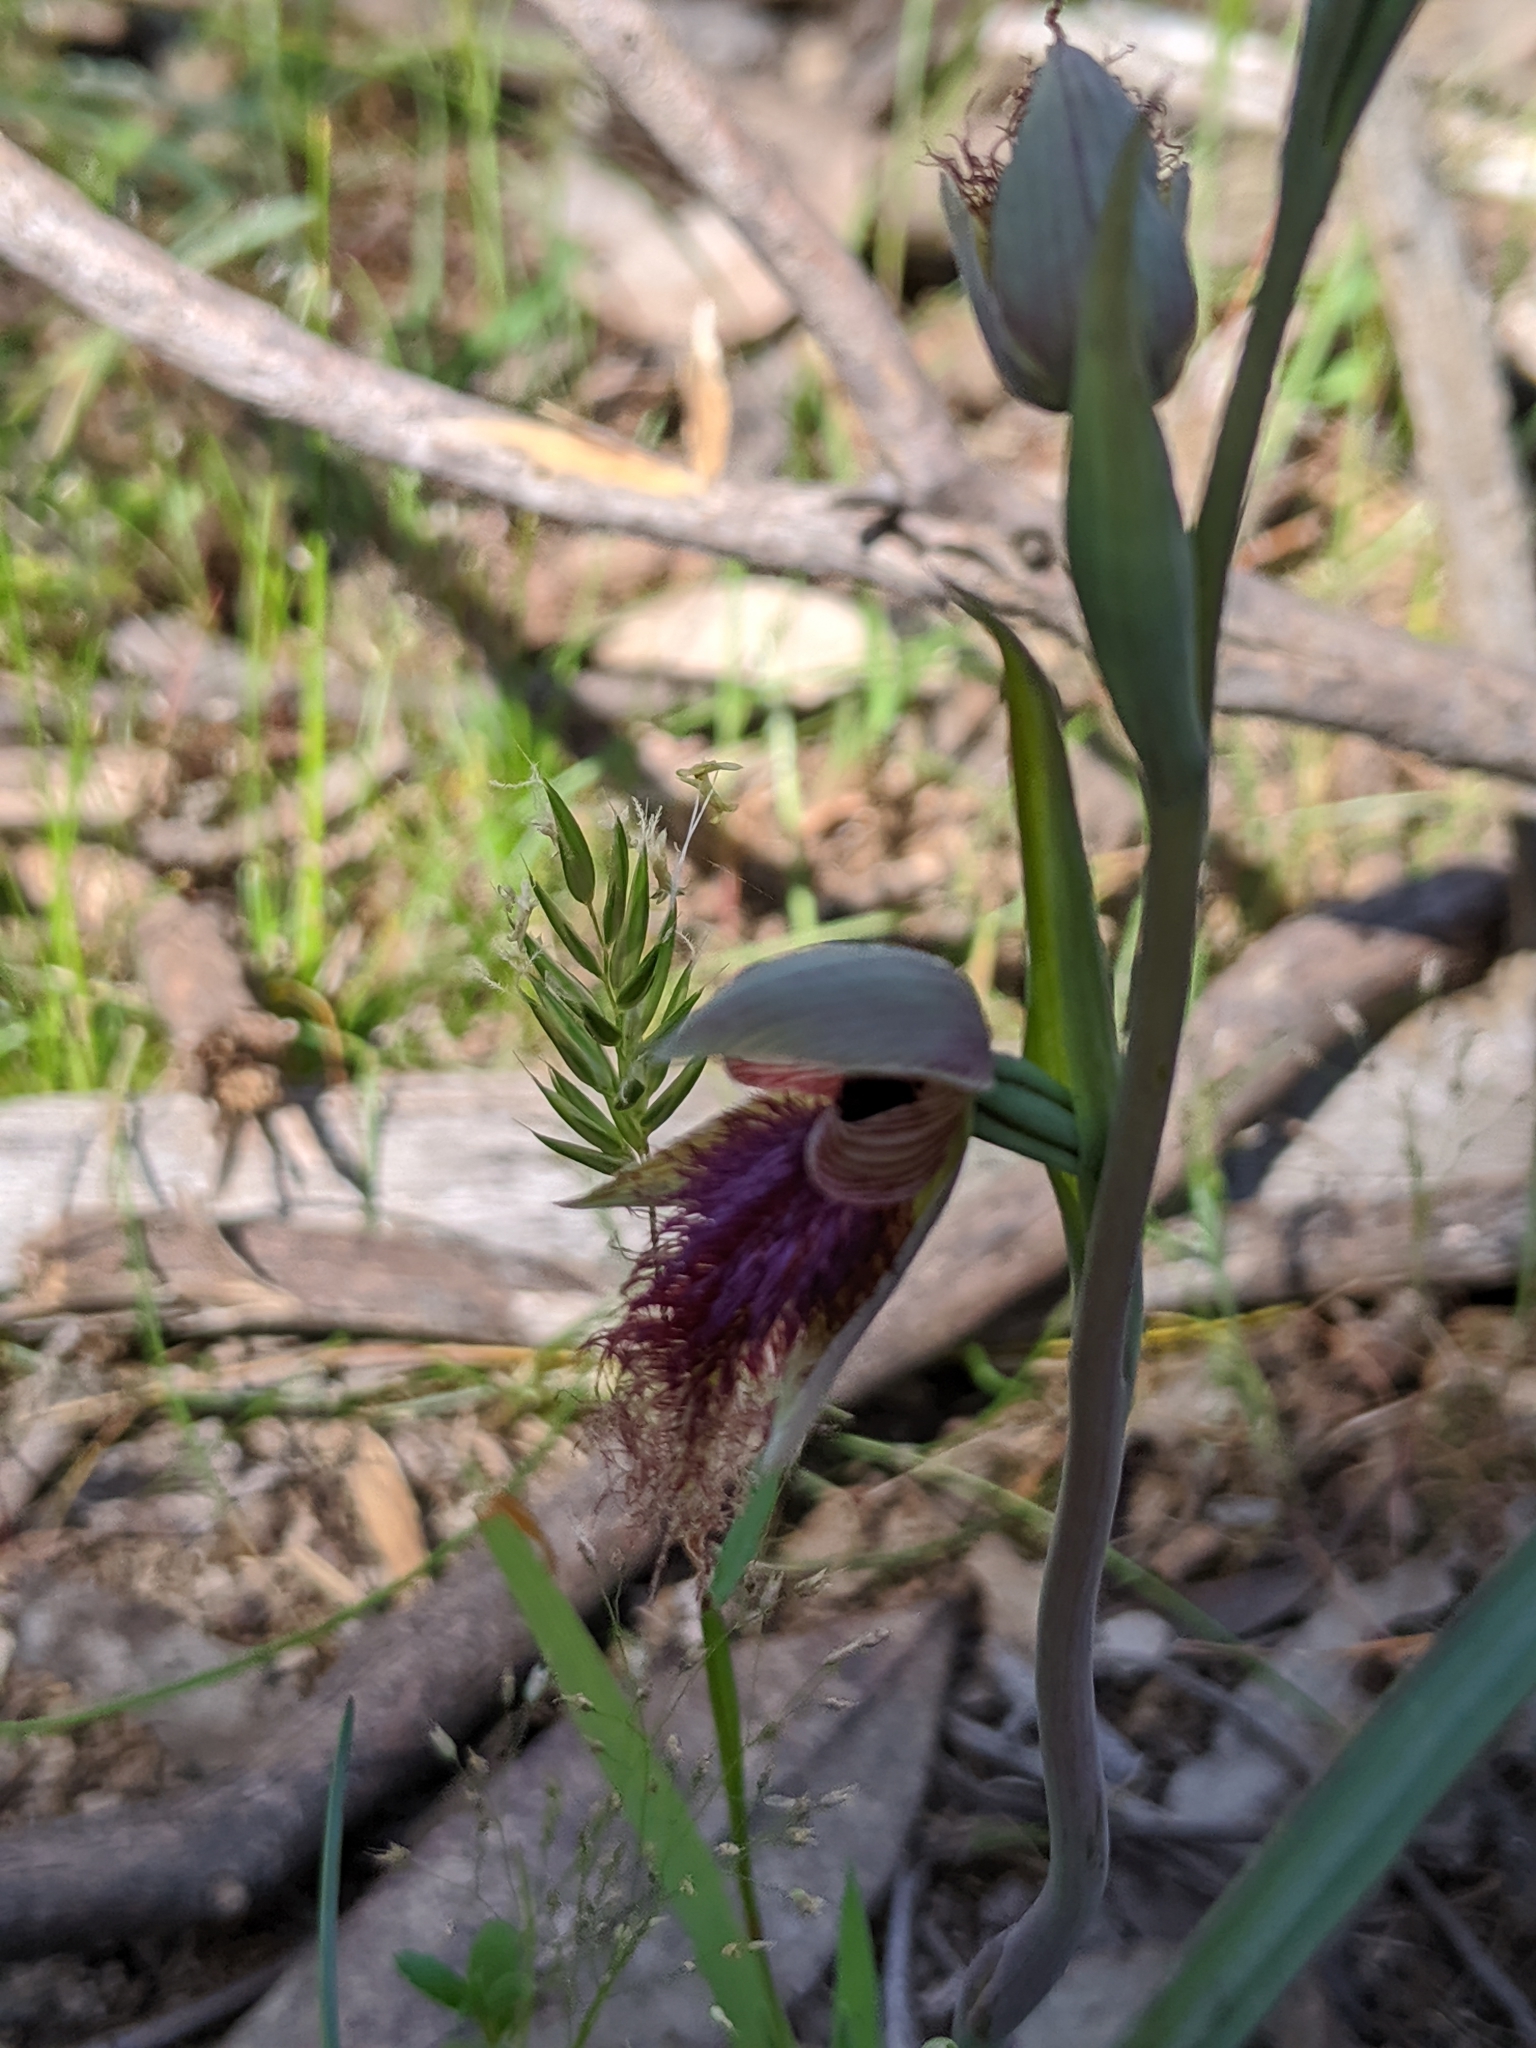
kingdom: Plantae
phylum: Tracheophyta
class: Liliopsida
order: Asparagales
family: Orchidaceae
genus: Calochilus
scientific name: Calochilus robertsonii
